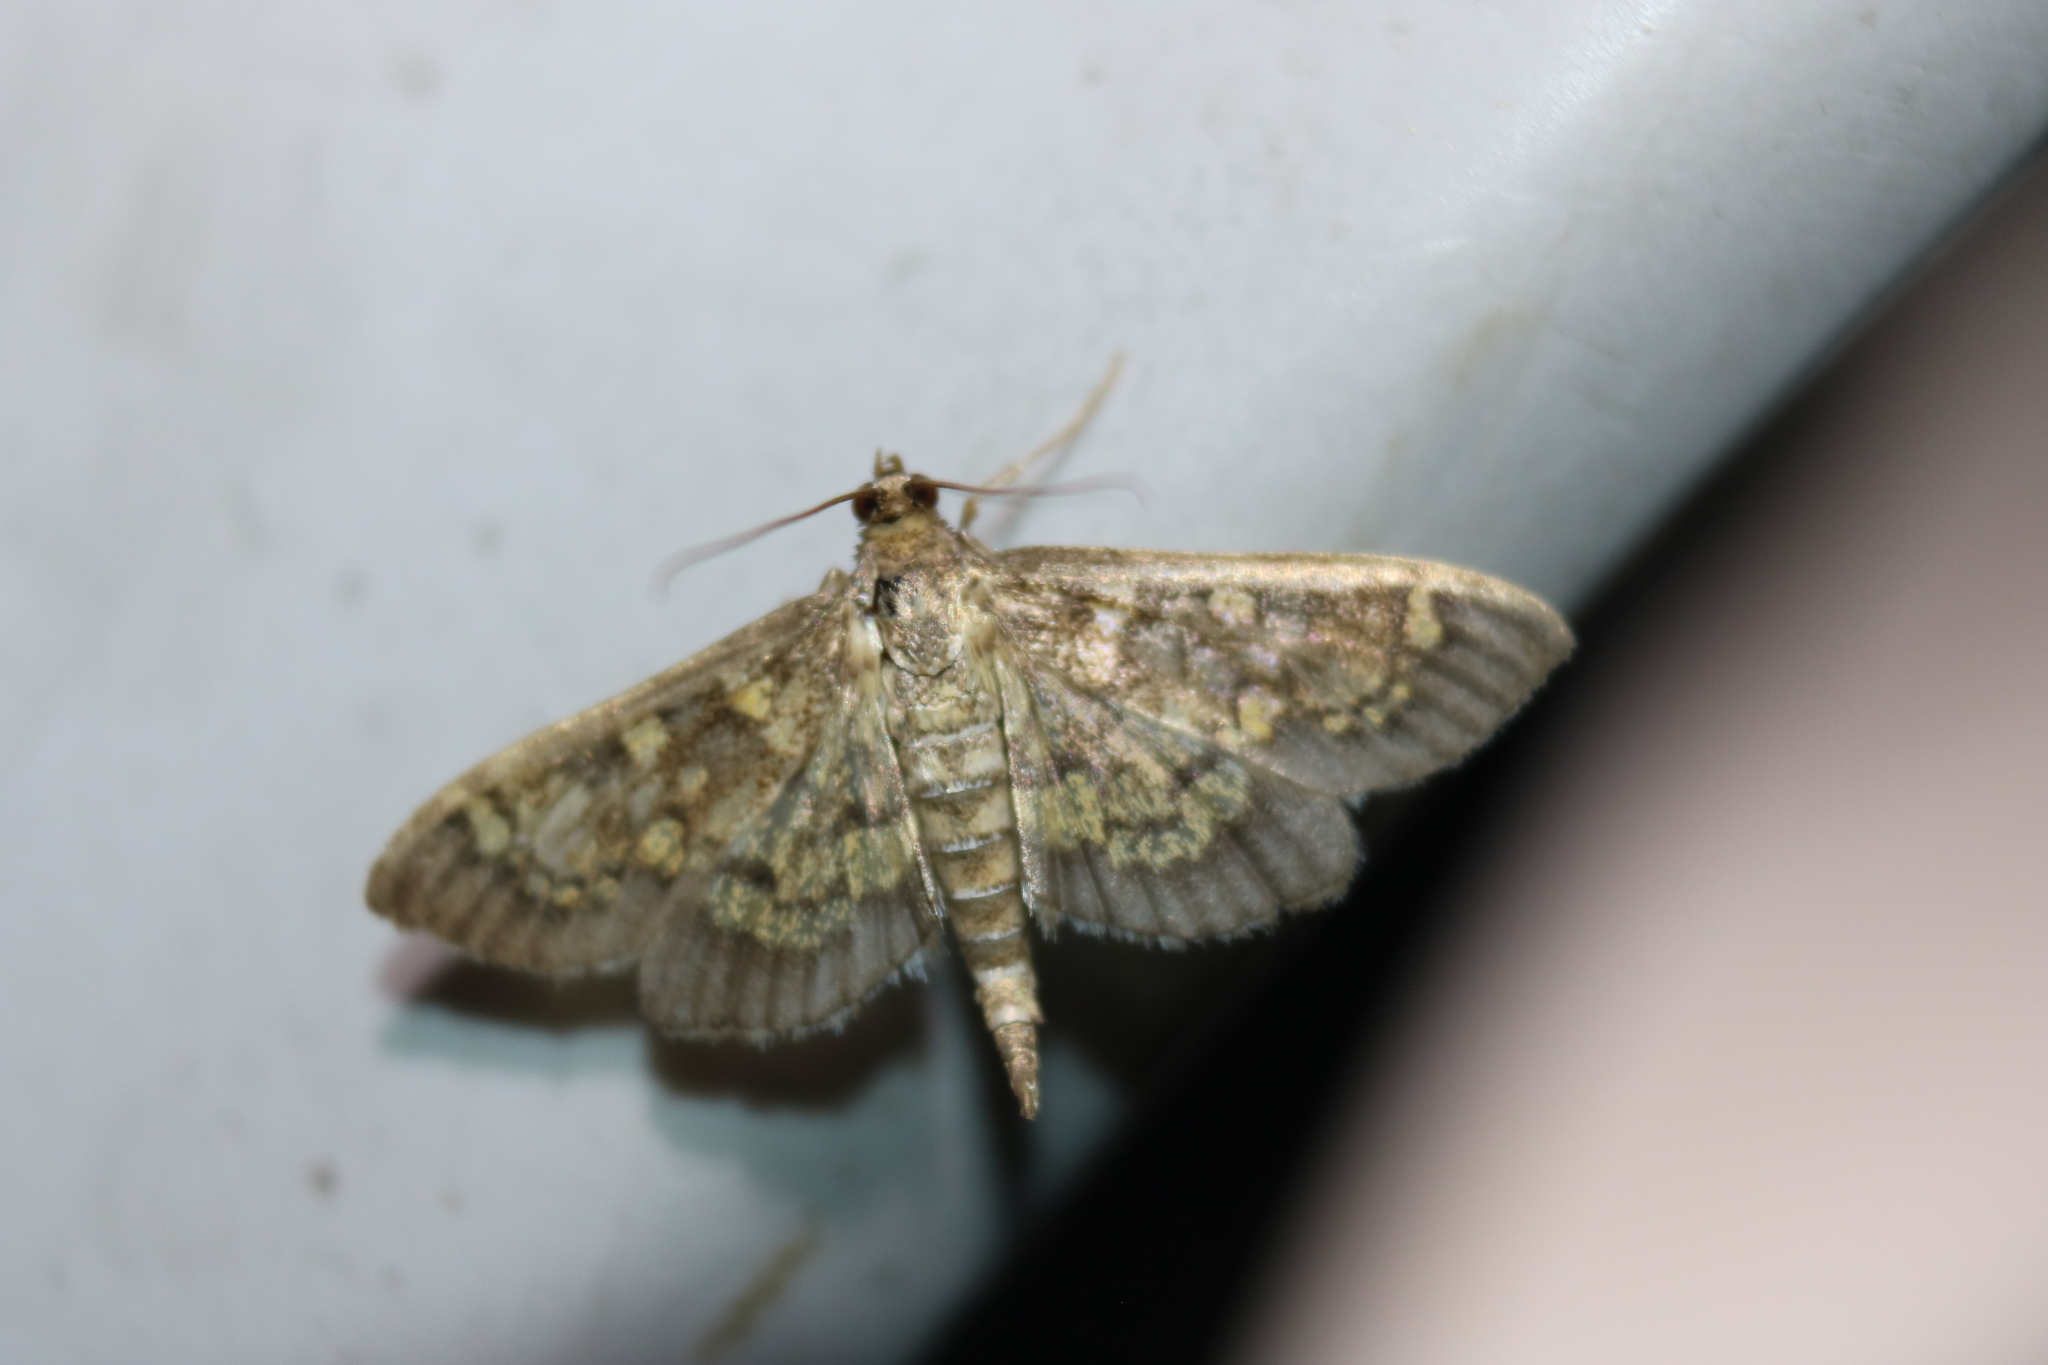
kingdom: Animalia
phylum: Arthropoda
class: Insecta
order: Lepidoptera
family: Crambidae
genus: Epipagis
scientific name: Epipagis adipaloides
